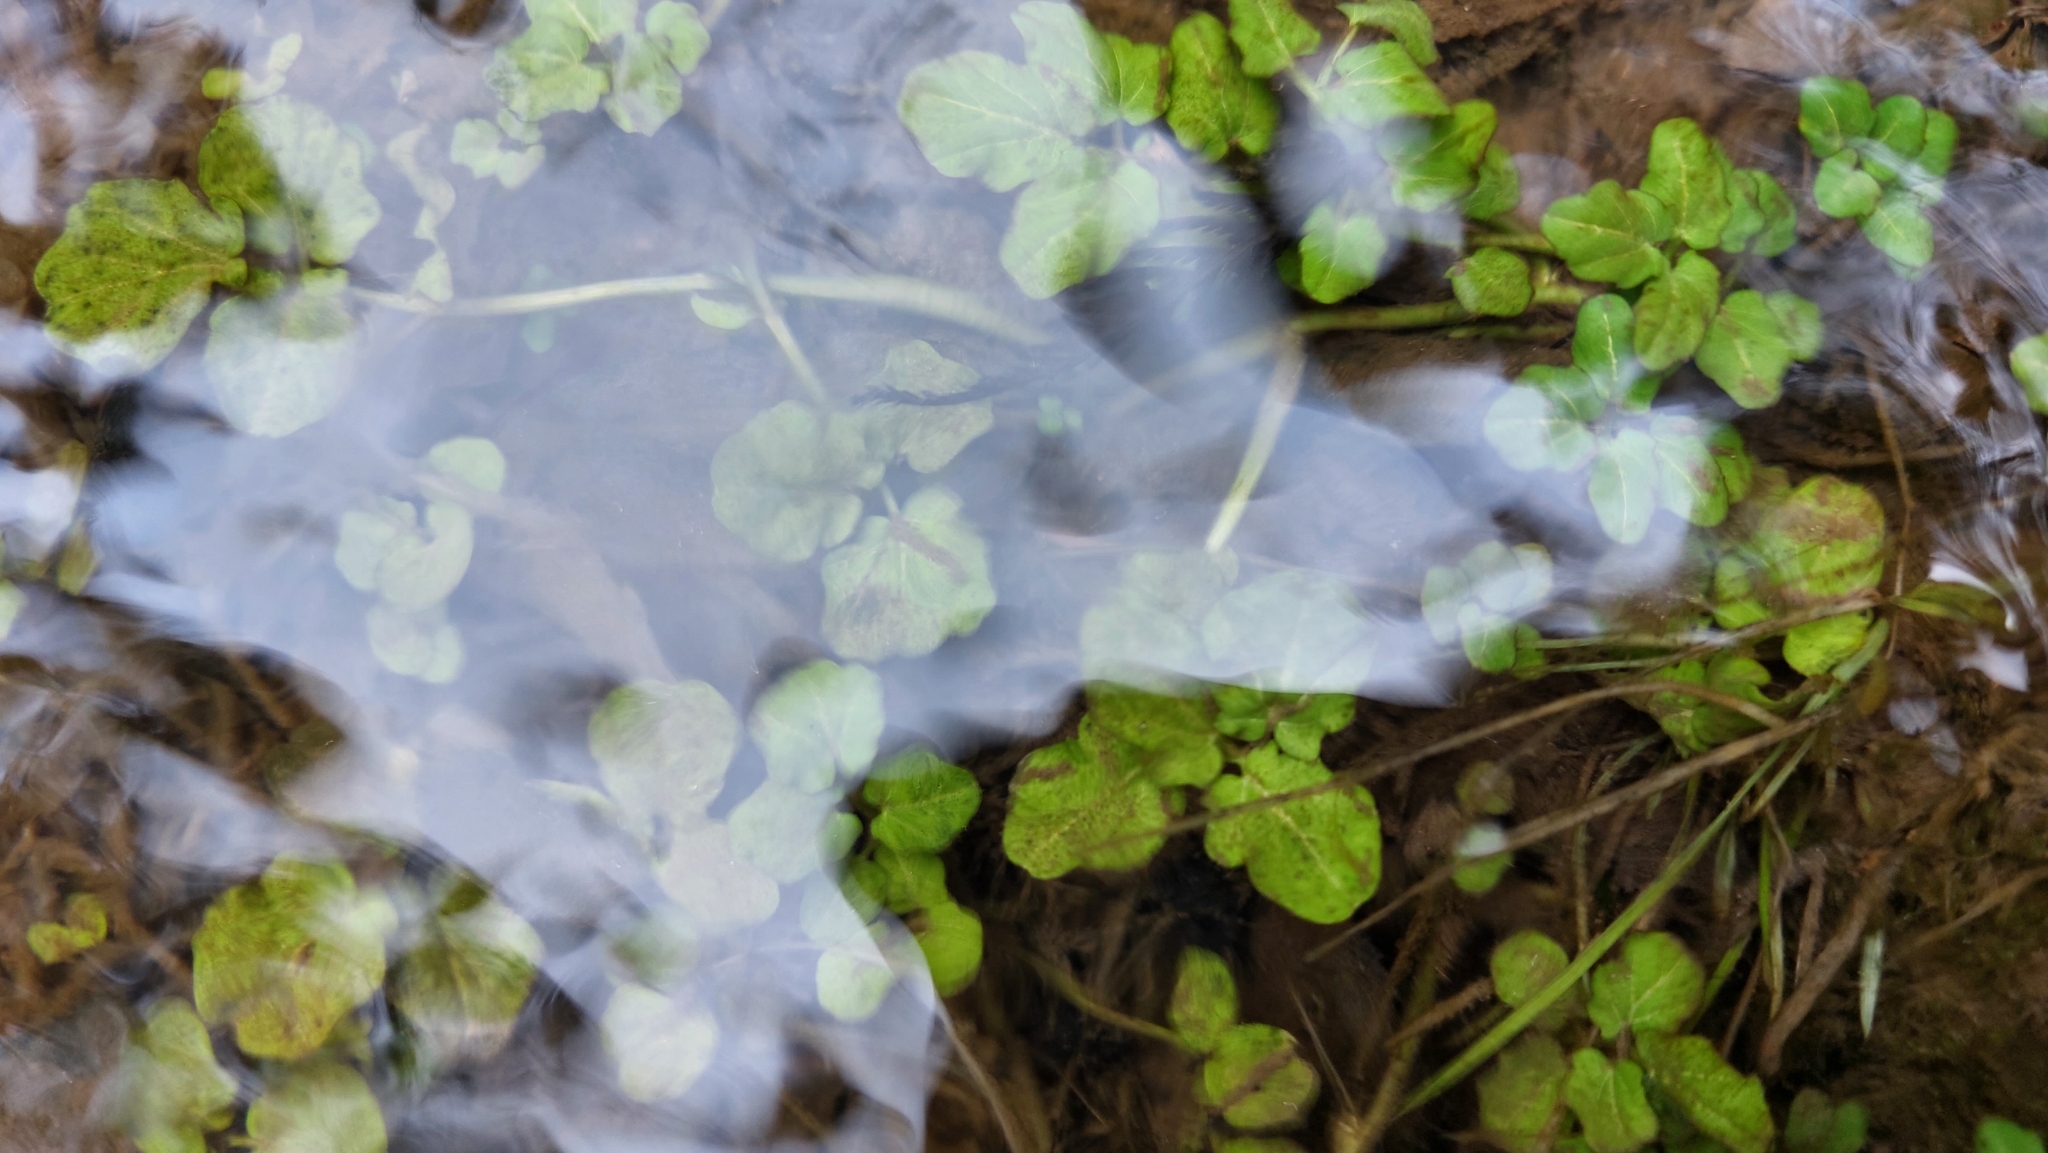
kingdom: Plantae
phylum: Tracheophyta
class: Magnoliopsida
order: Brassicales
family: Brassicaceae
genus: Cardamine
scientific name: Cardamine amara
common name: Large bitter-cress
